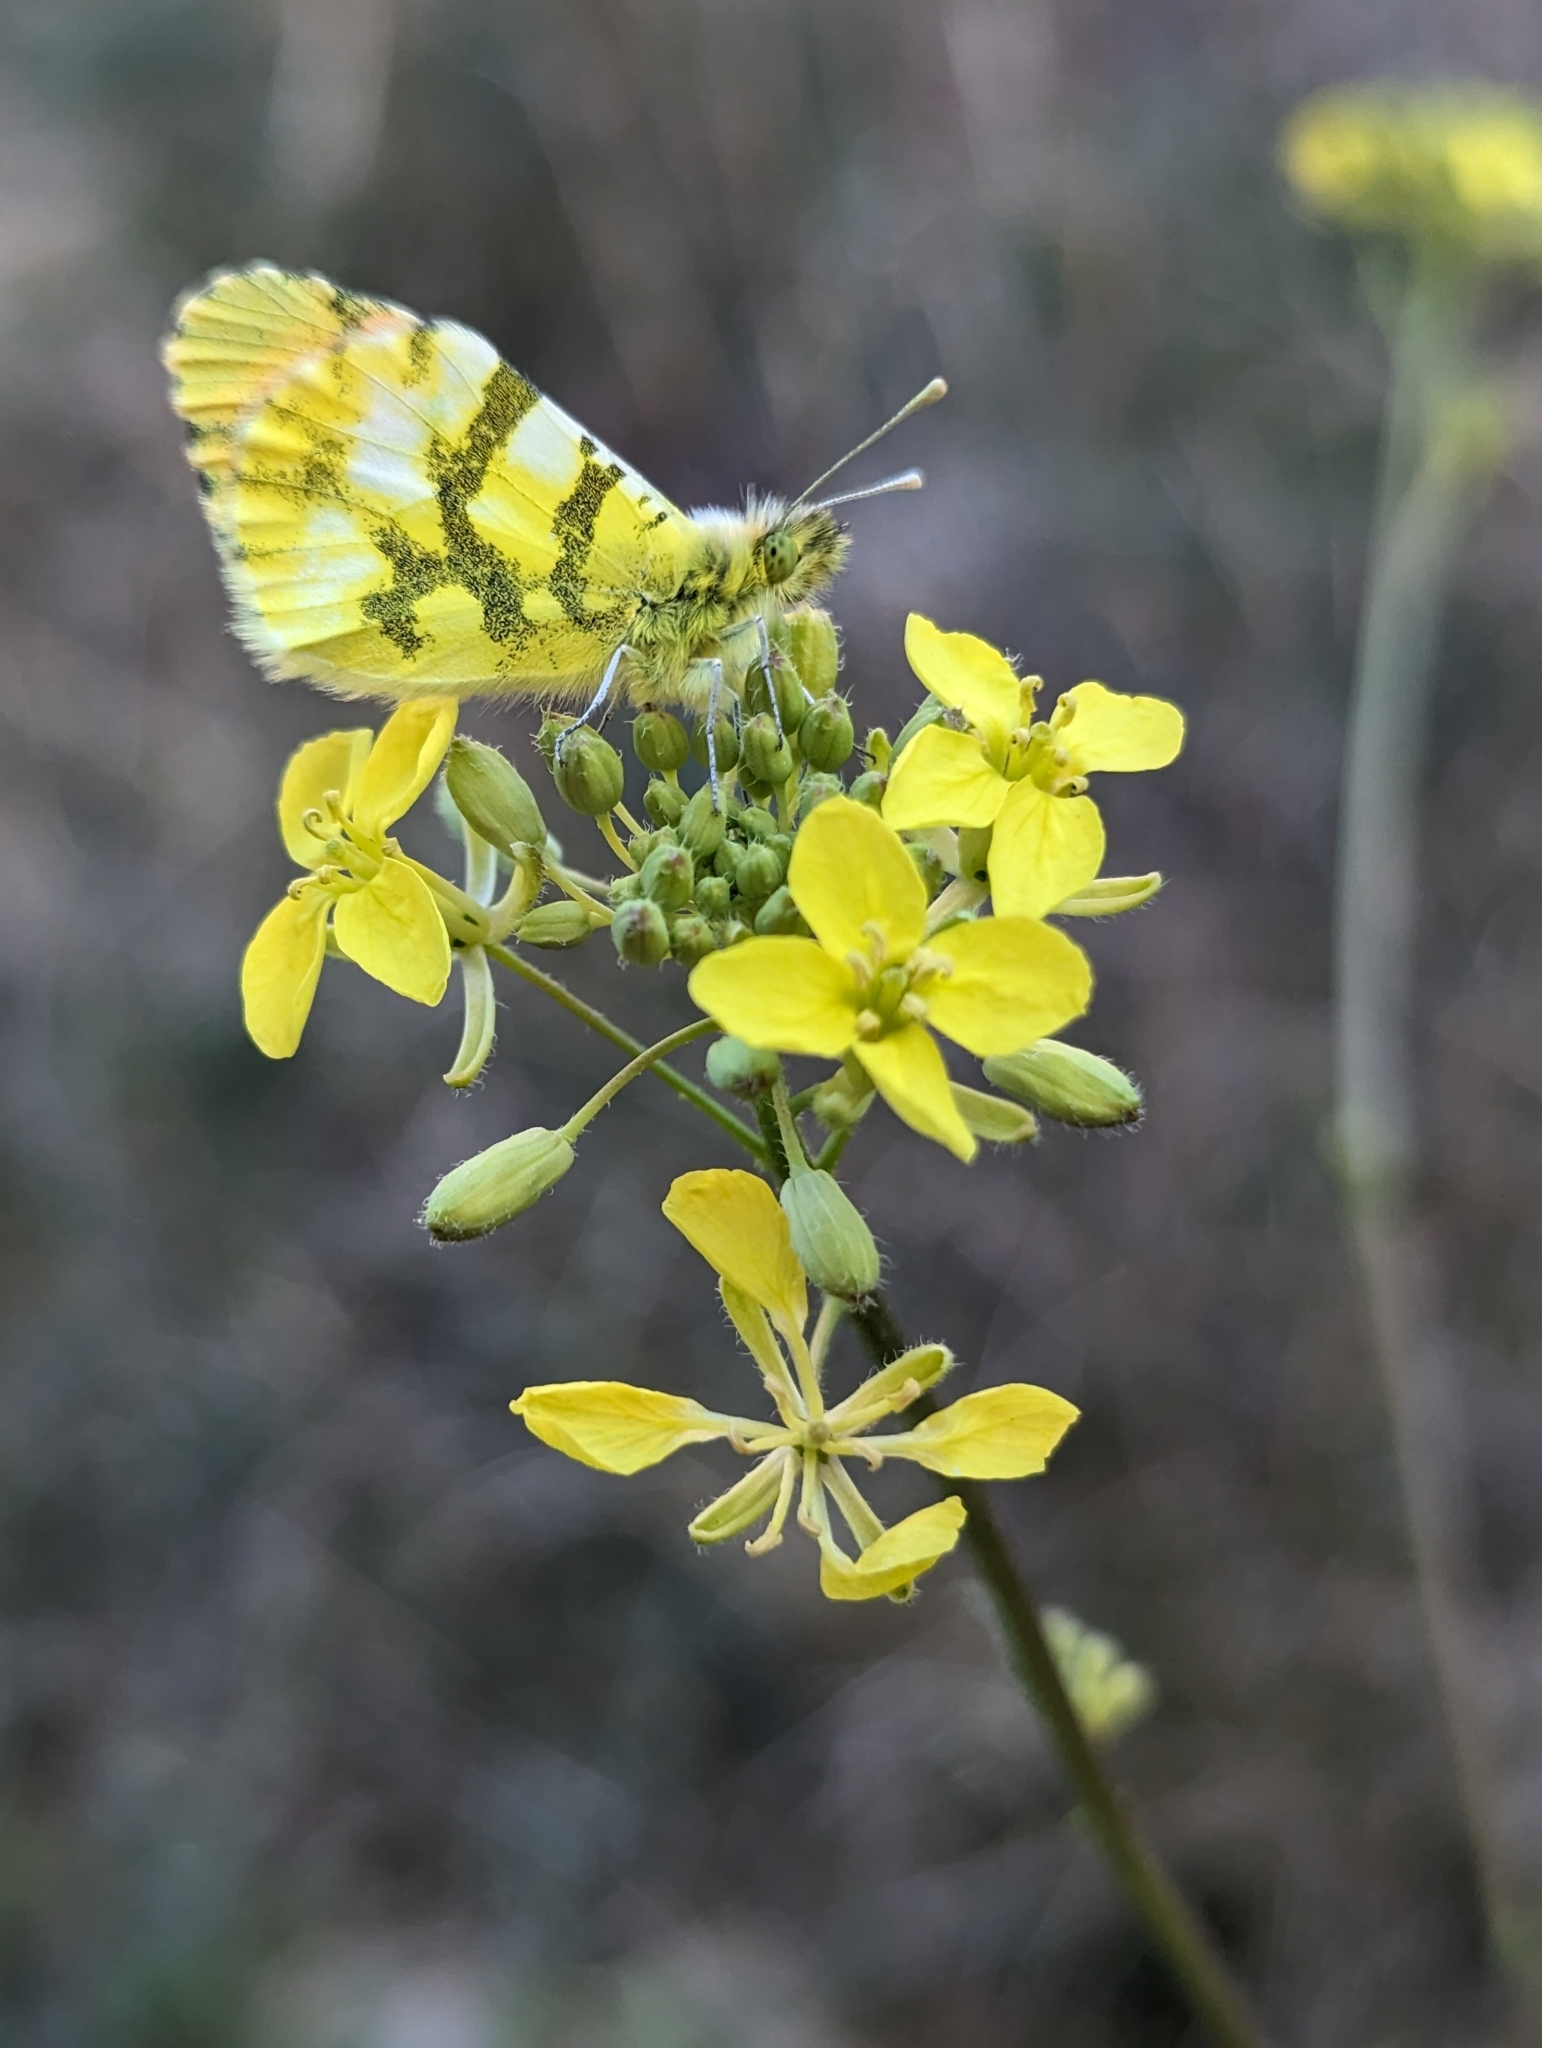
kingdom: Animalia
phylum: Arthropoda
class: Insecta
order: Lepidoptera
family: Pieridae
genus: Anthocharis
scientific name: Anthocharis euphenoides
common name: Provence orange-tip
